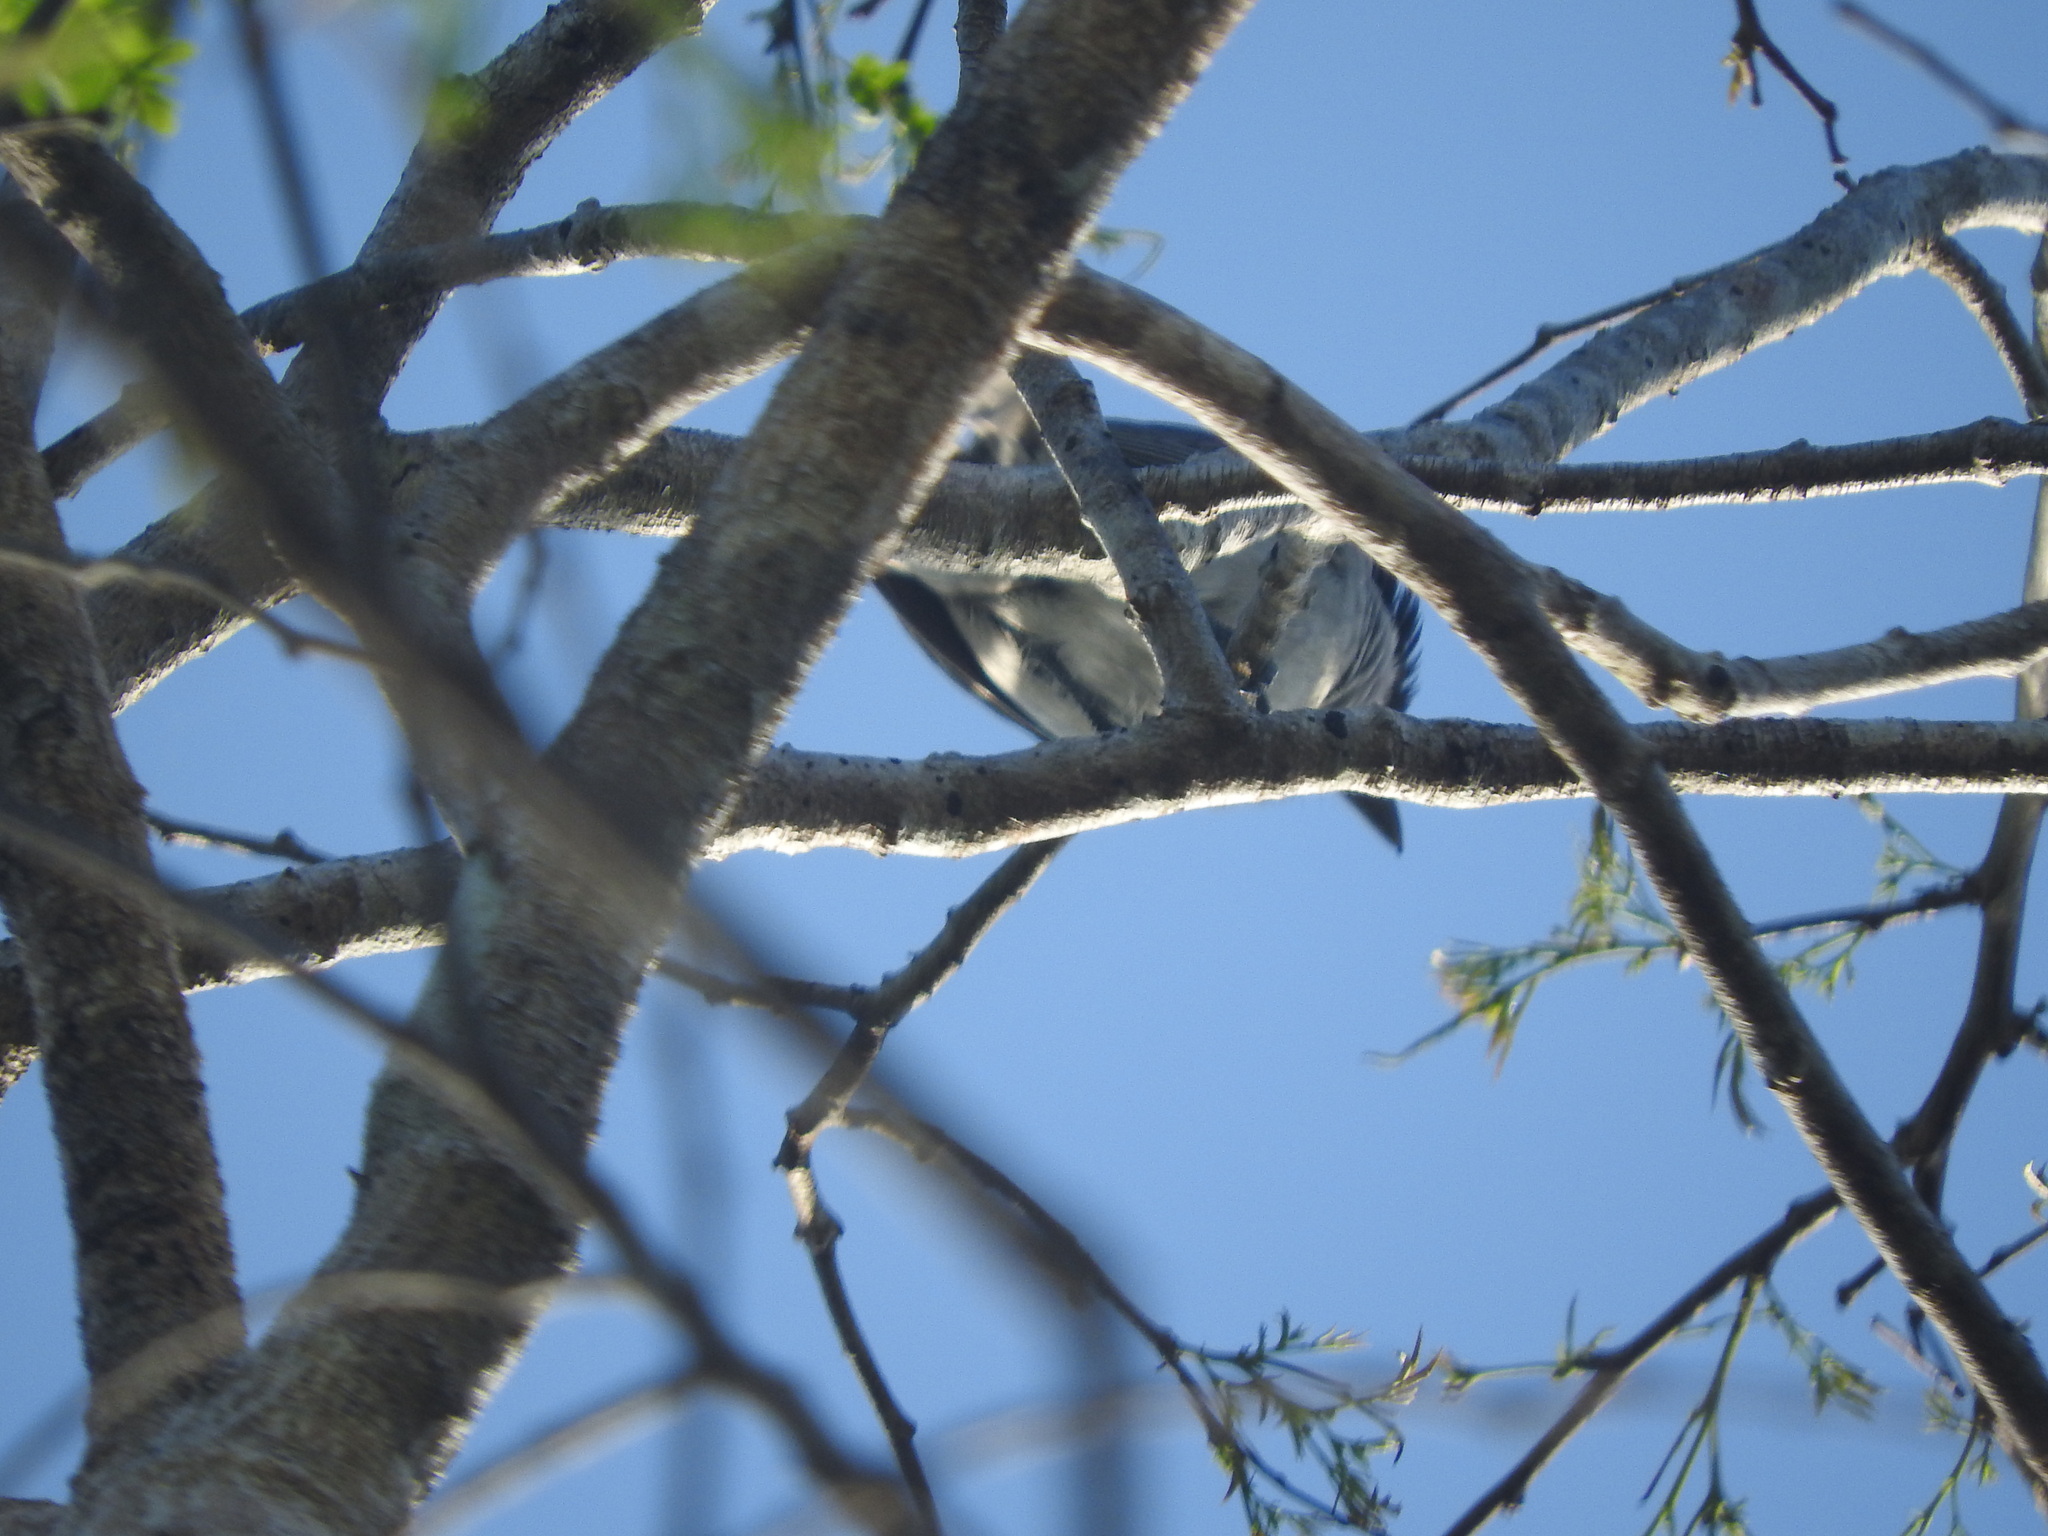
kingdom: Animalia
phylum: Chordata
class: Aves
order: Passeriformes
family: Cotingidae
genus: Pachyramphus
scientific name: Pachyramphus aglaiae
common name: Rose-throated becard
